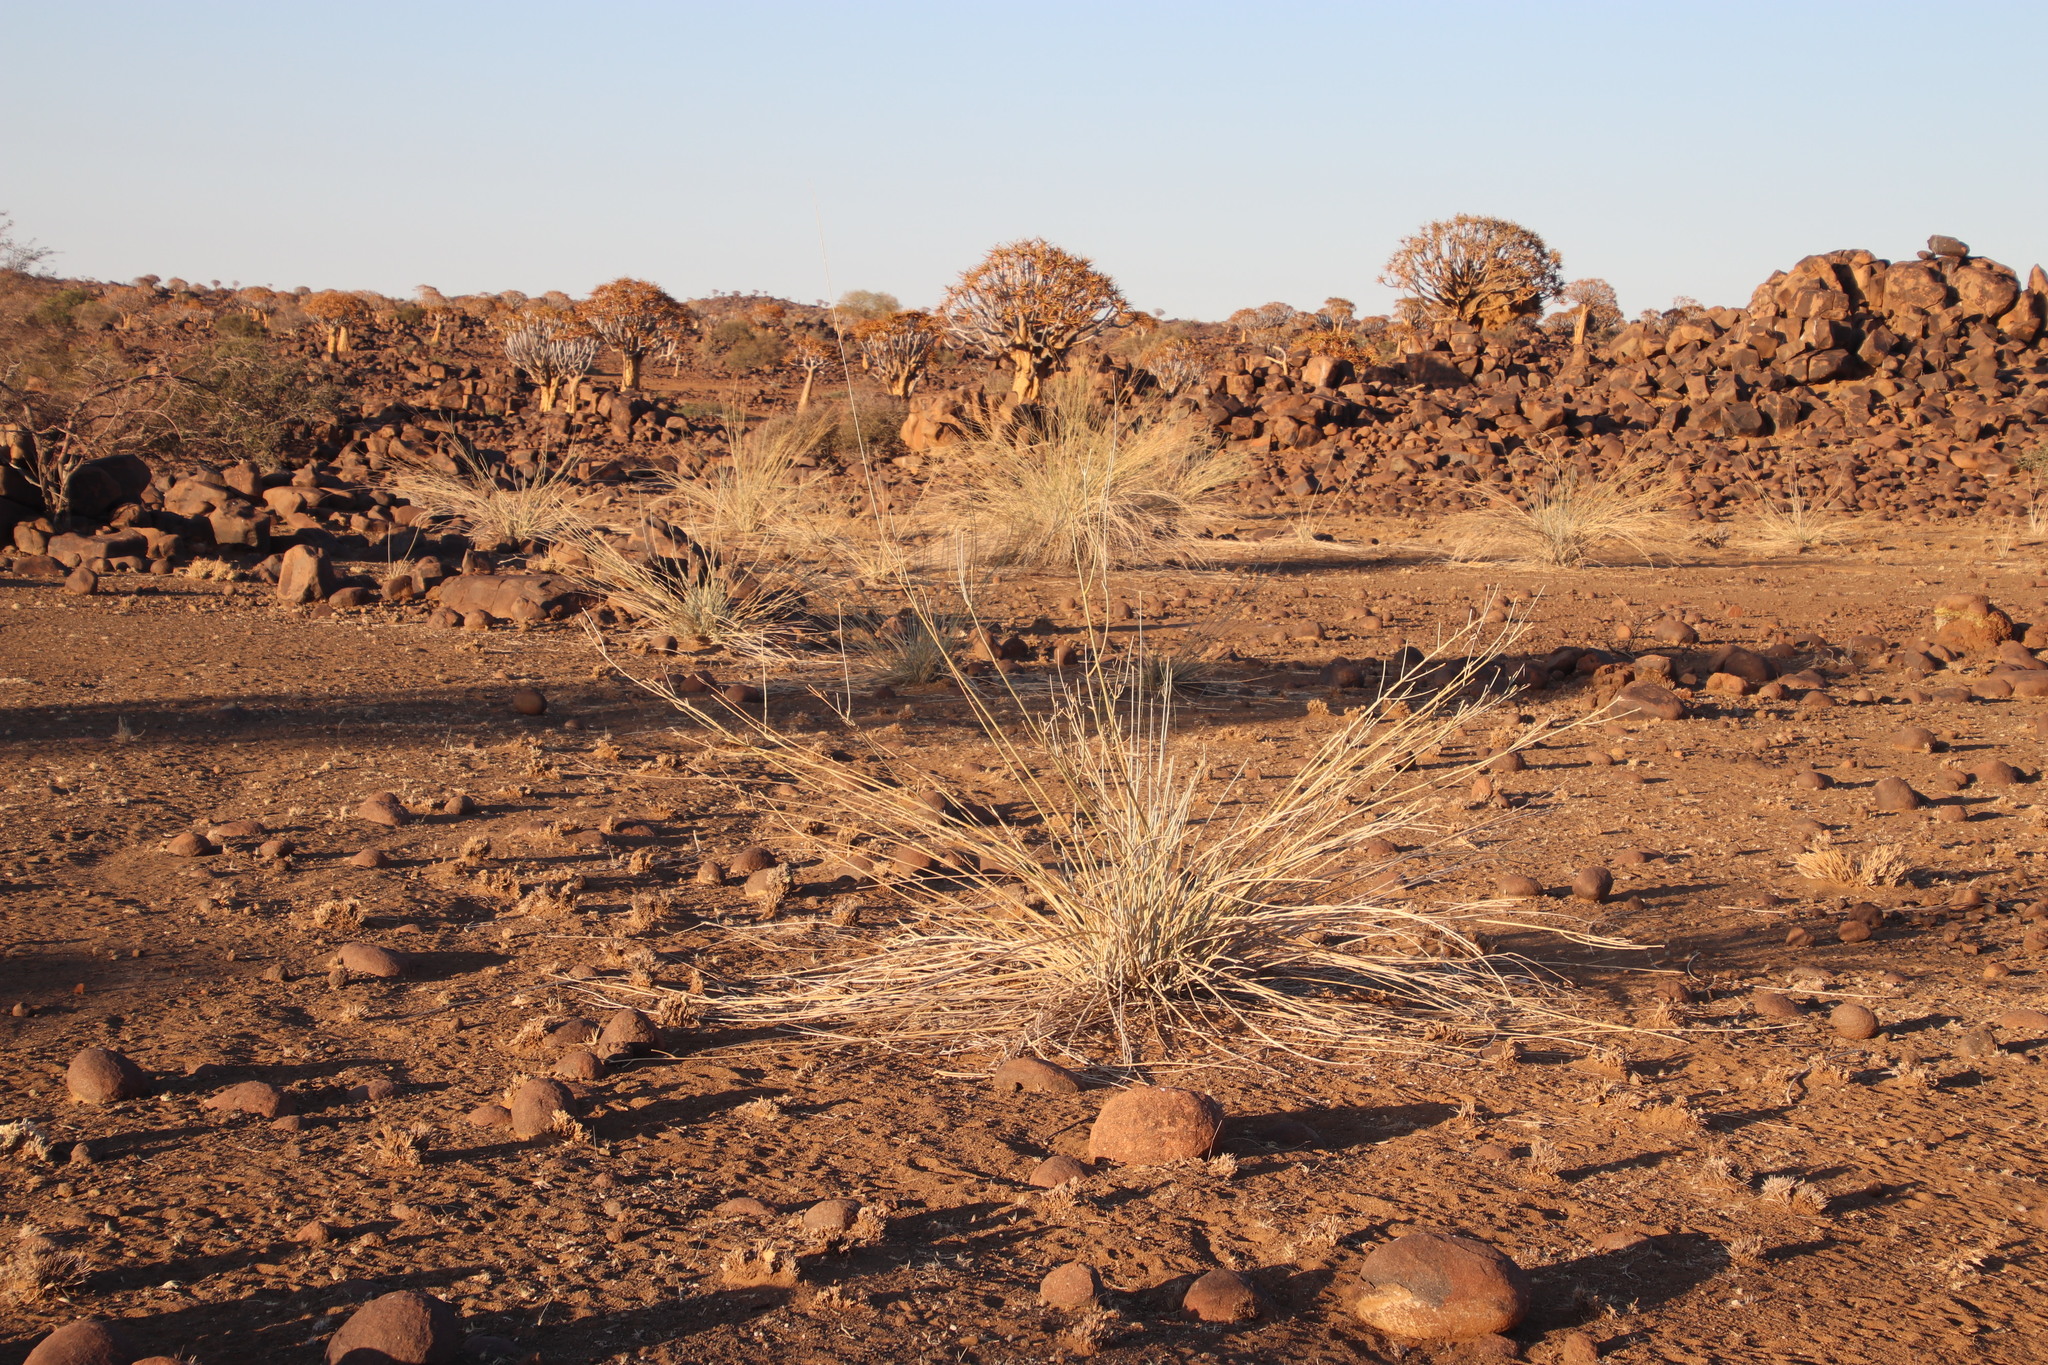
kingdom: Plantae
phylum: Tracheophyta
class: Magnoliopsida
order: Gentianales
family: Apocynaceae
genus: Orthanthera
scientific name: Orthanthera albida
